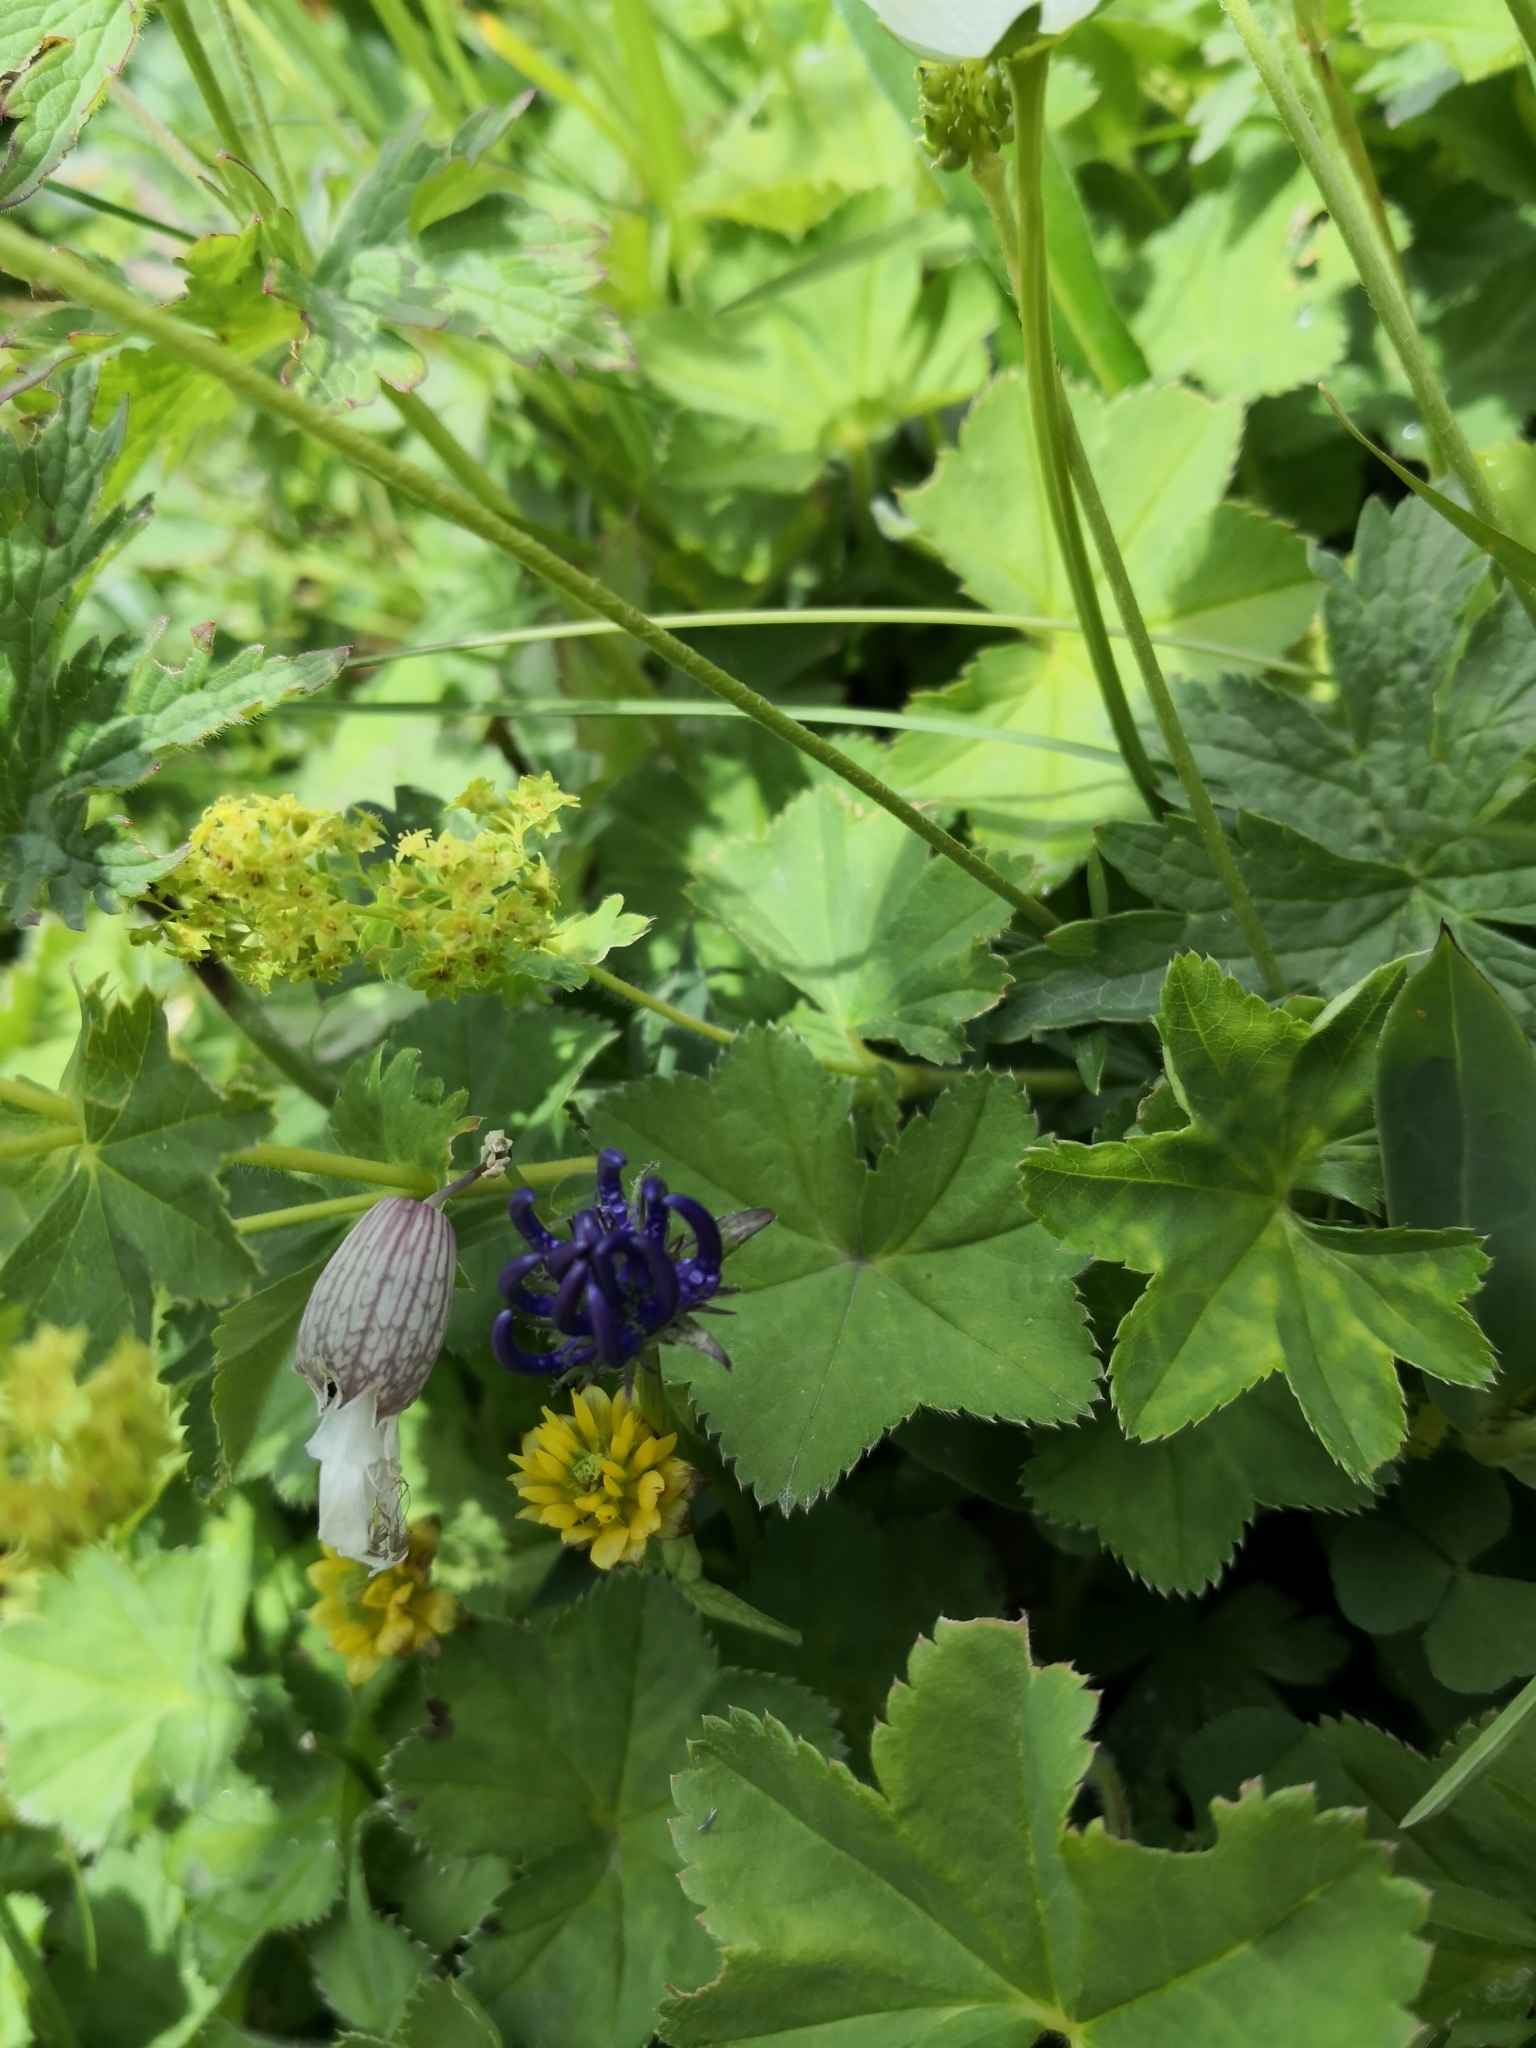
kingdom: Plantae
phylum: Tracheophyta
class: Magnoliopsida
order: Asterales
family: Campanulaceae
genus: Phyteuma
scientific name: Phyteuma orbiculare
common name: Round-headed rampion
